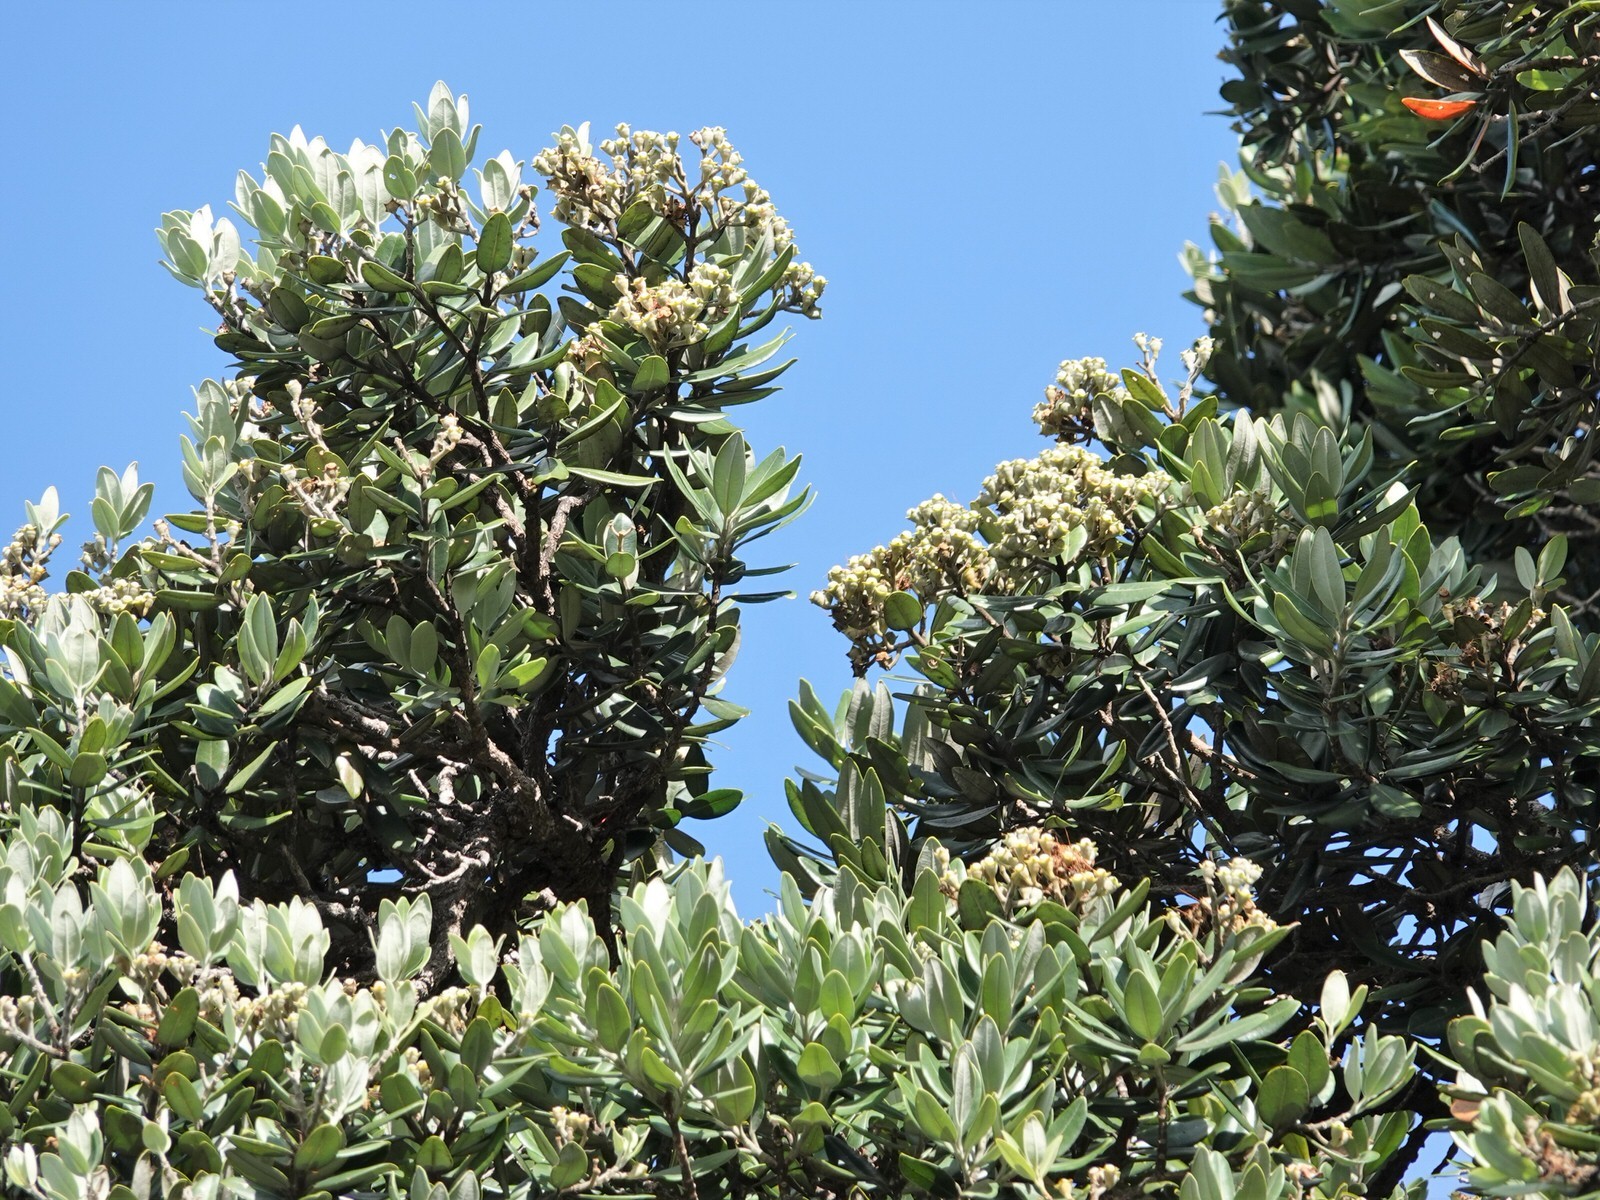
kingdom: Plantae
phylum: Tracheophyta
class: Magnoliopsida
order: Myrtales
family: Myrtaceae
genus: Metrosideros
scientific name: Metrosideros excelsa
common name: New zealand christmastree
